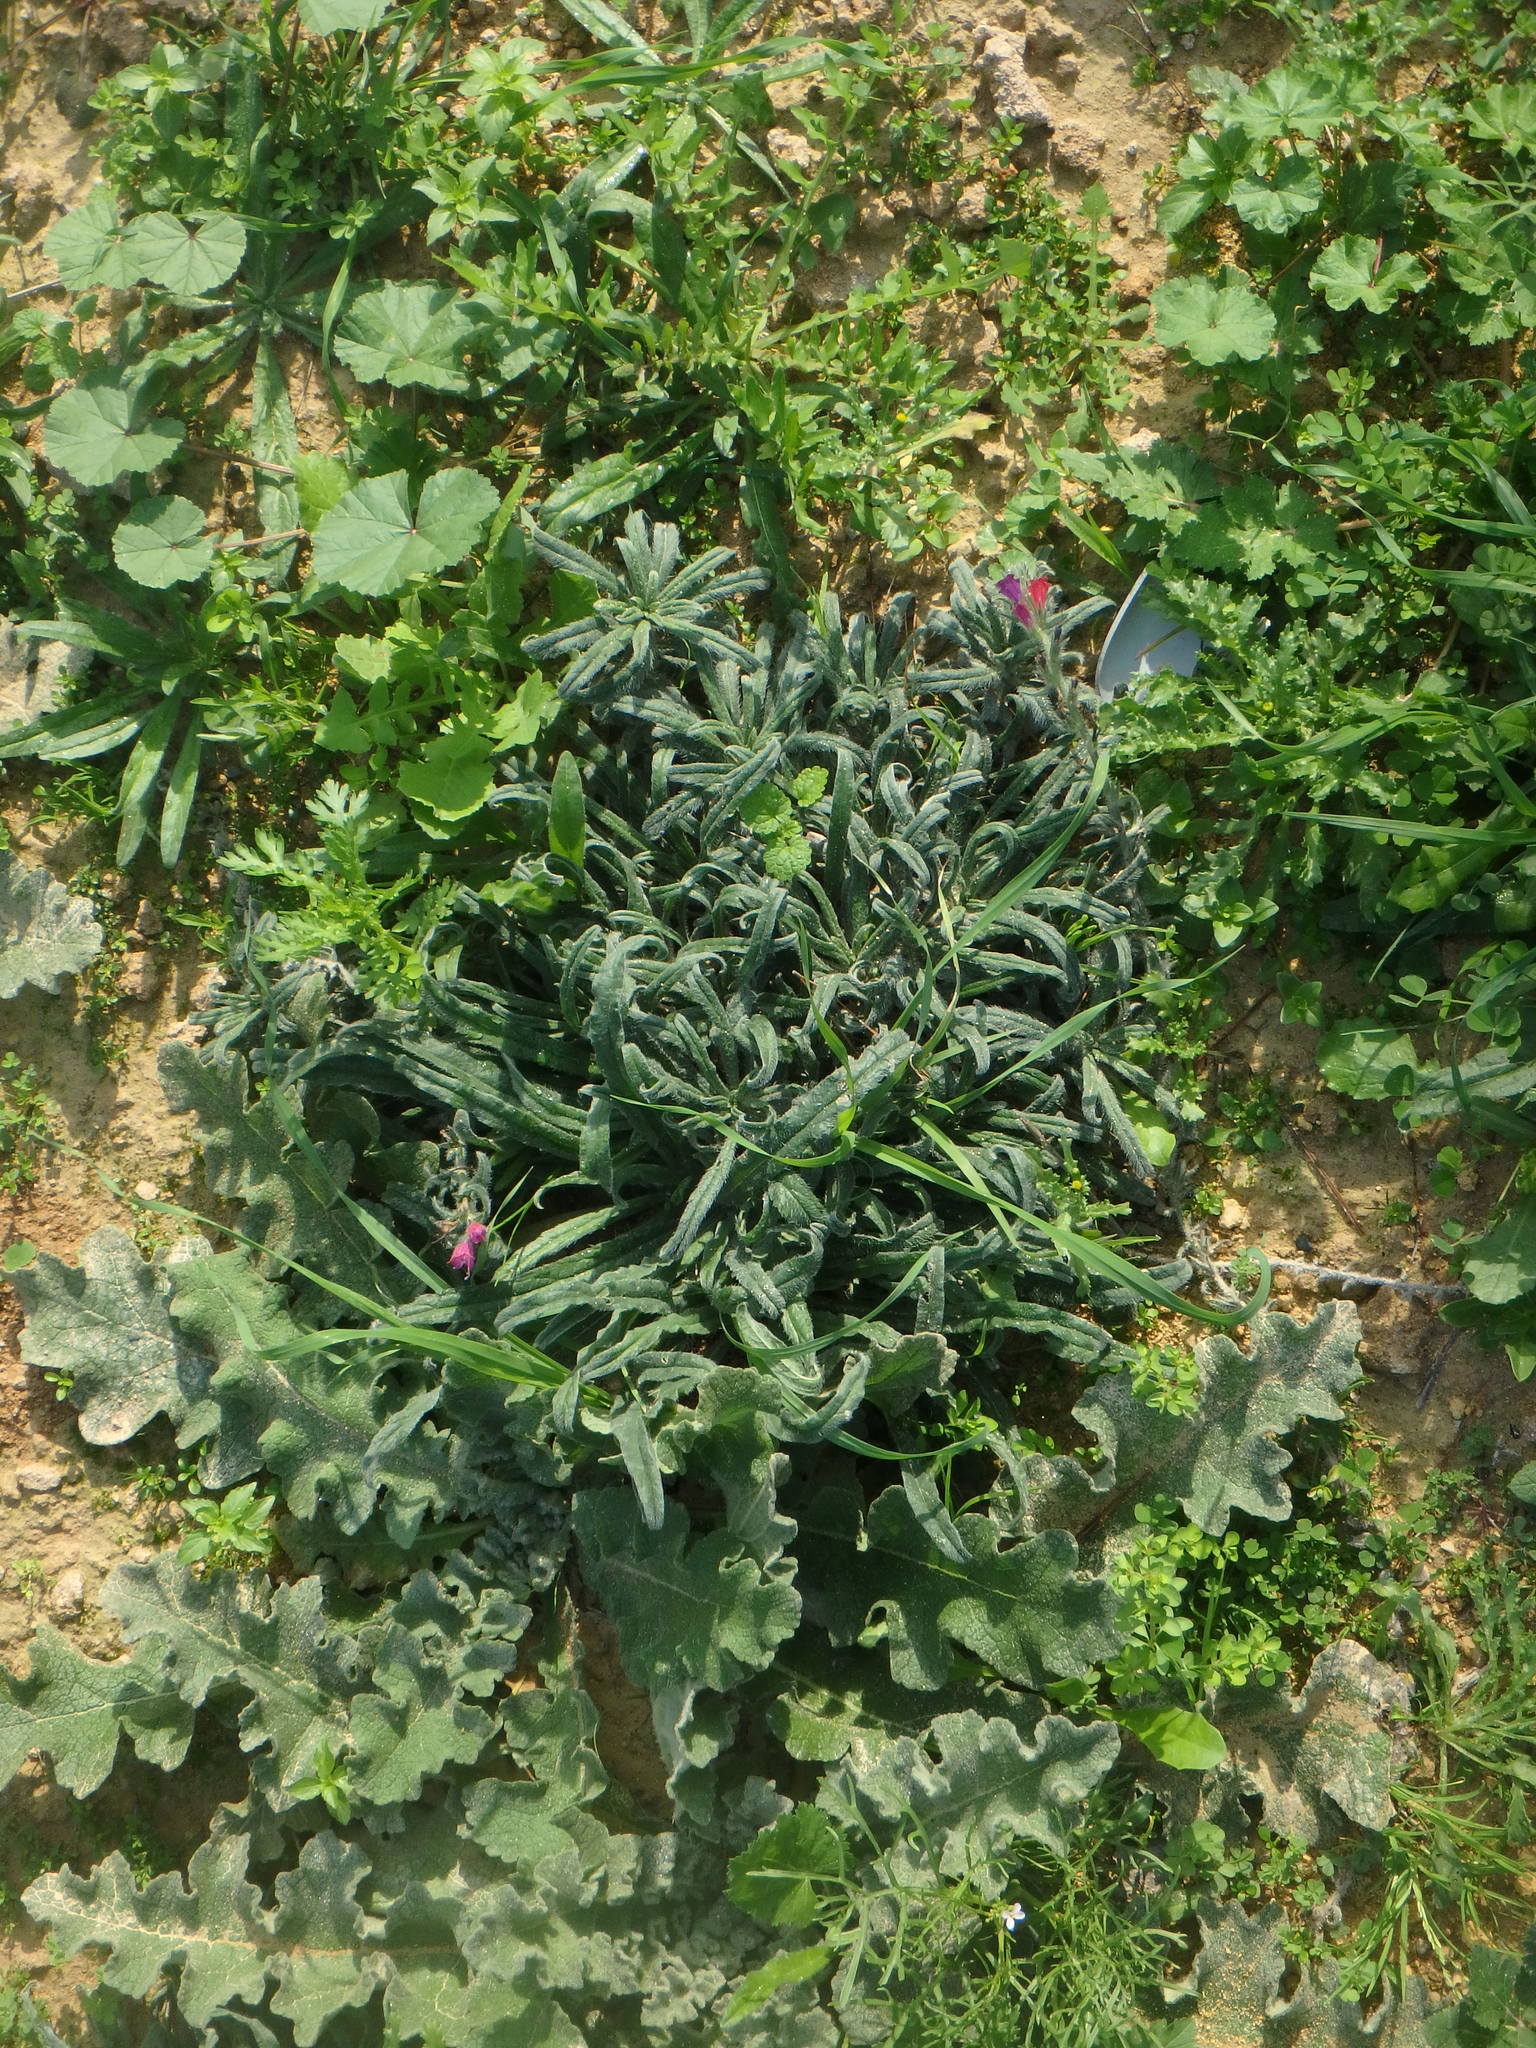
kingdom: Plantae
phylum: Tracheophyta
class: Magnoliopsida
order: Boraginales
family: Boraginaceae
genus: Echium
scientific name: Echium angustifolium
